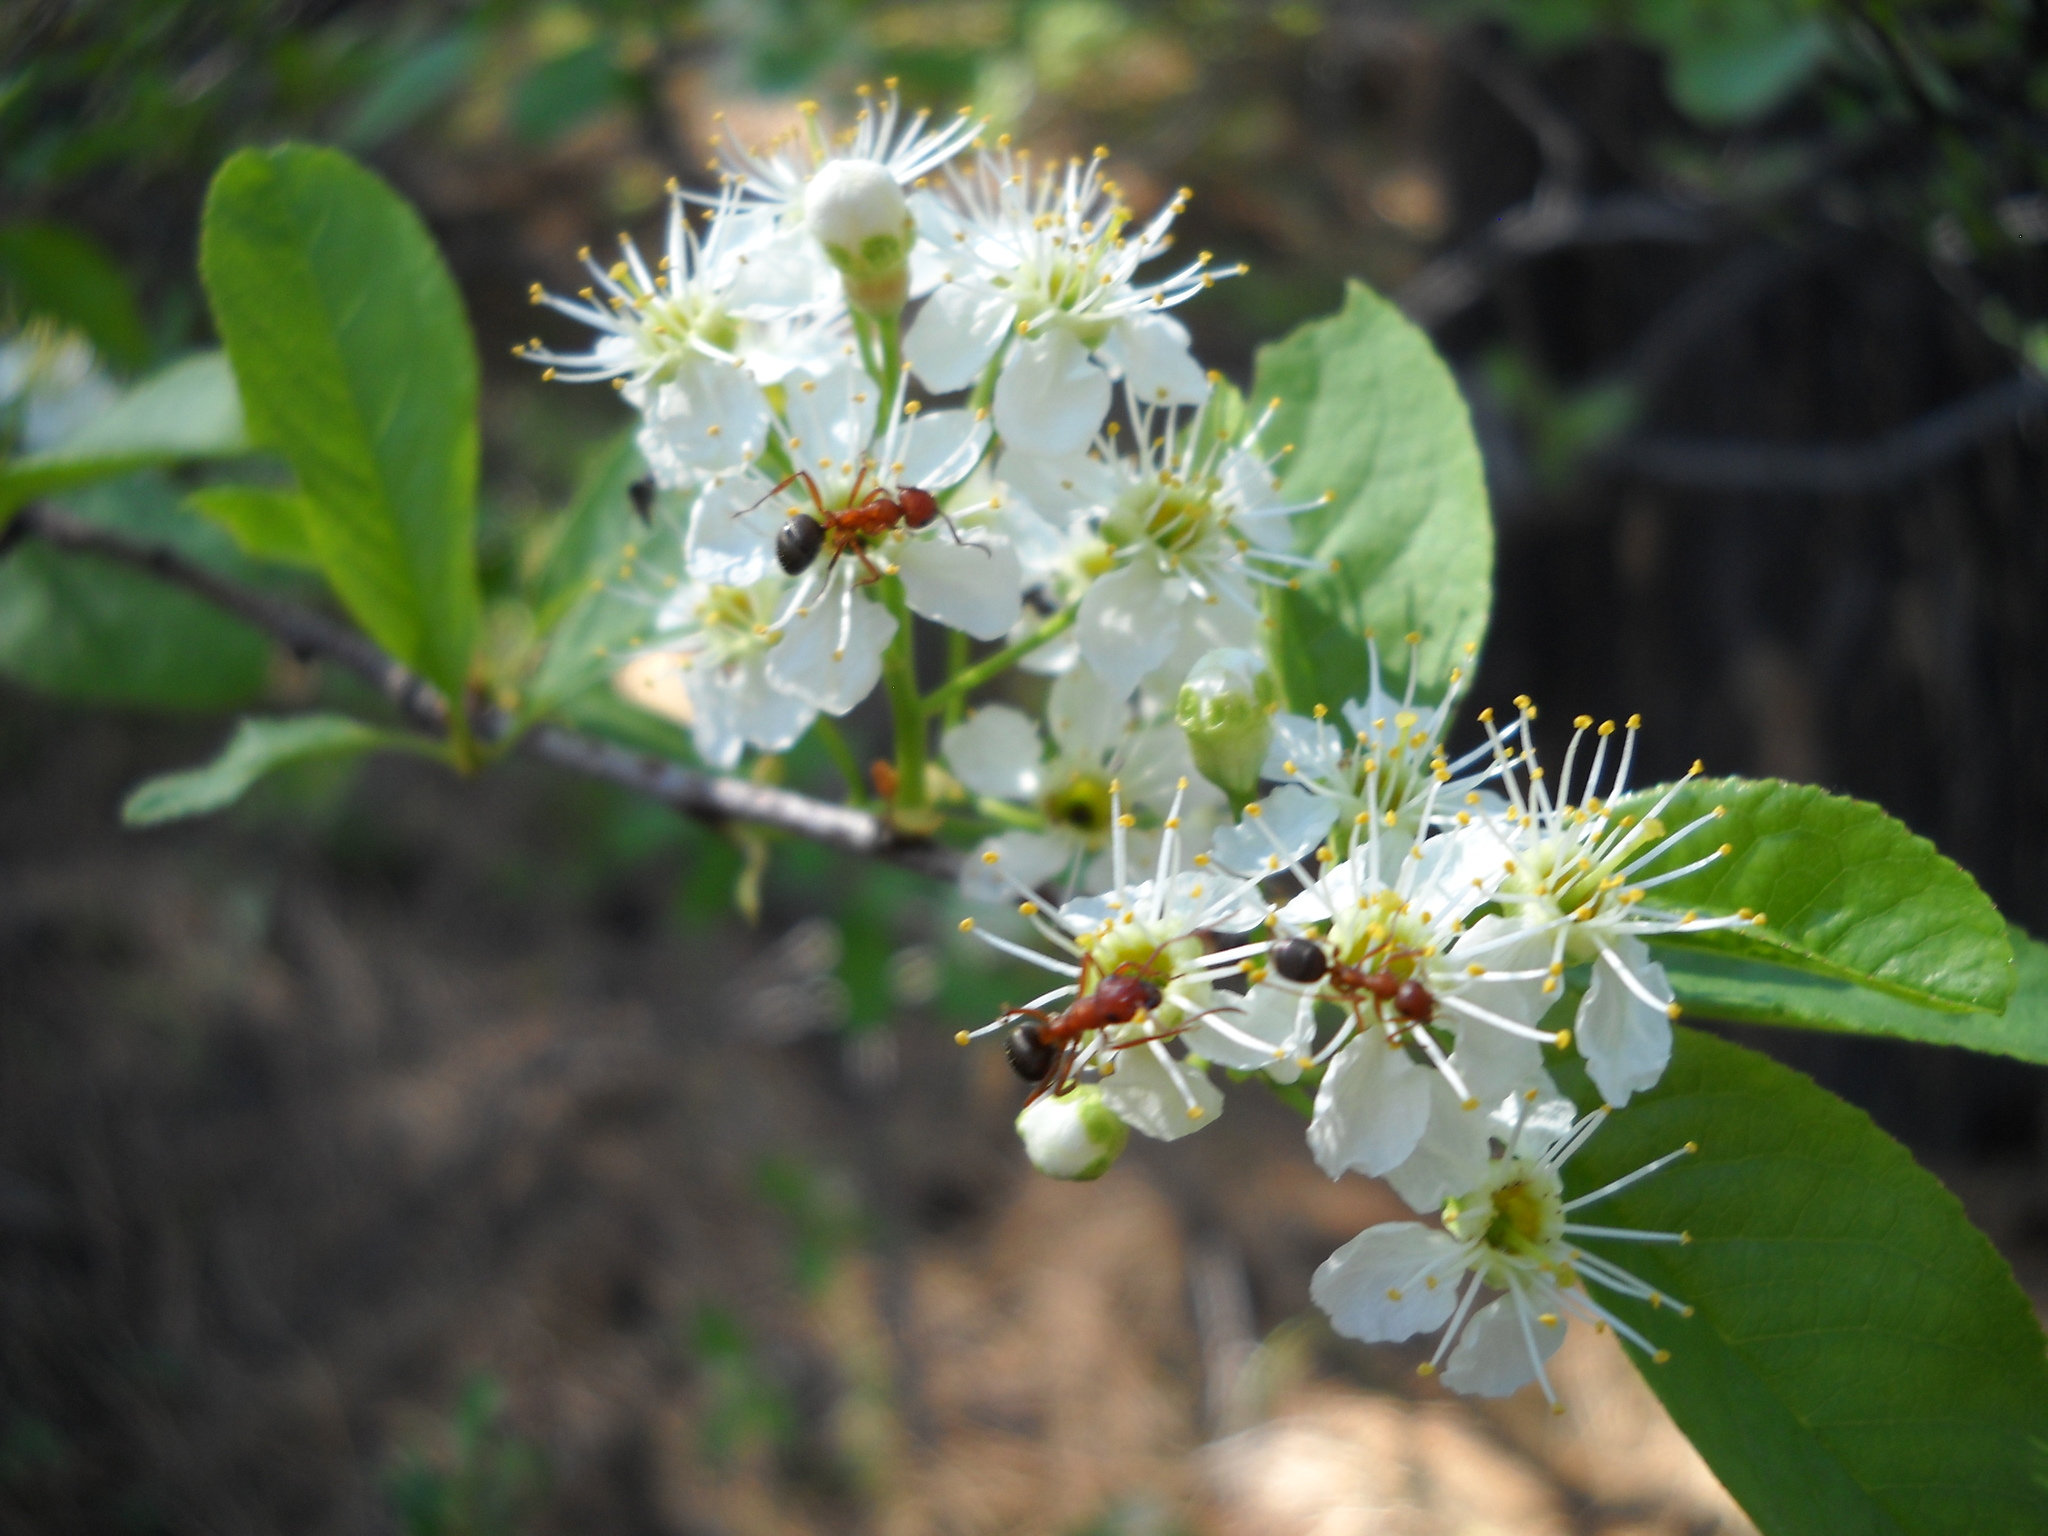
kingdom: Plantae
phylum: Tracheophyta
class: Magnoliopsida
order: Rosales
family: Rosaceae
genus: Prunus
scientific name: Prunus emarginata
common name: Bitter cherry
